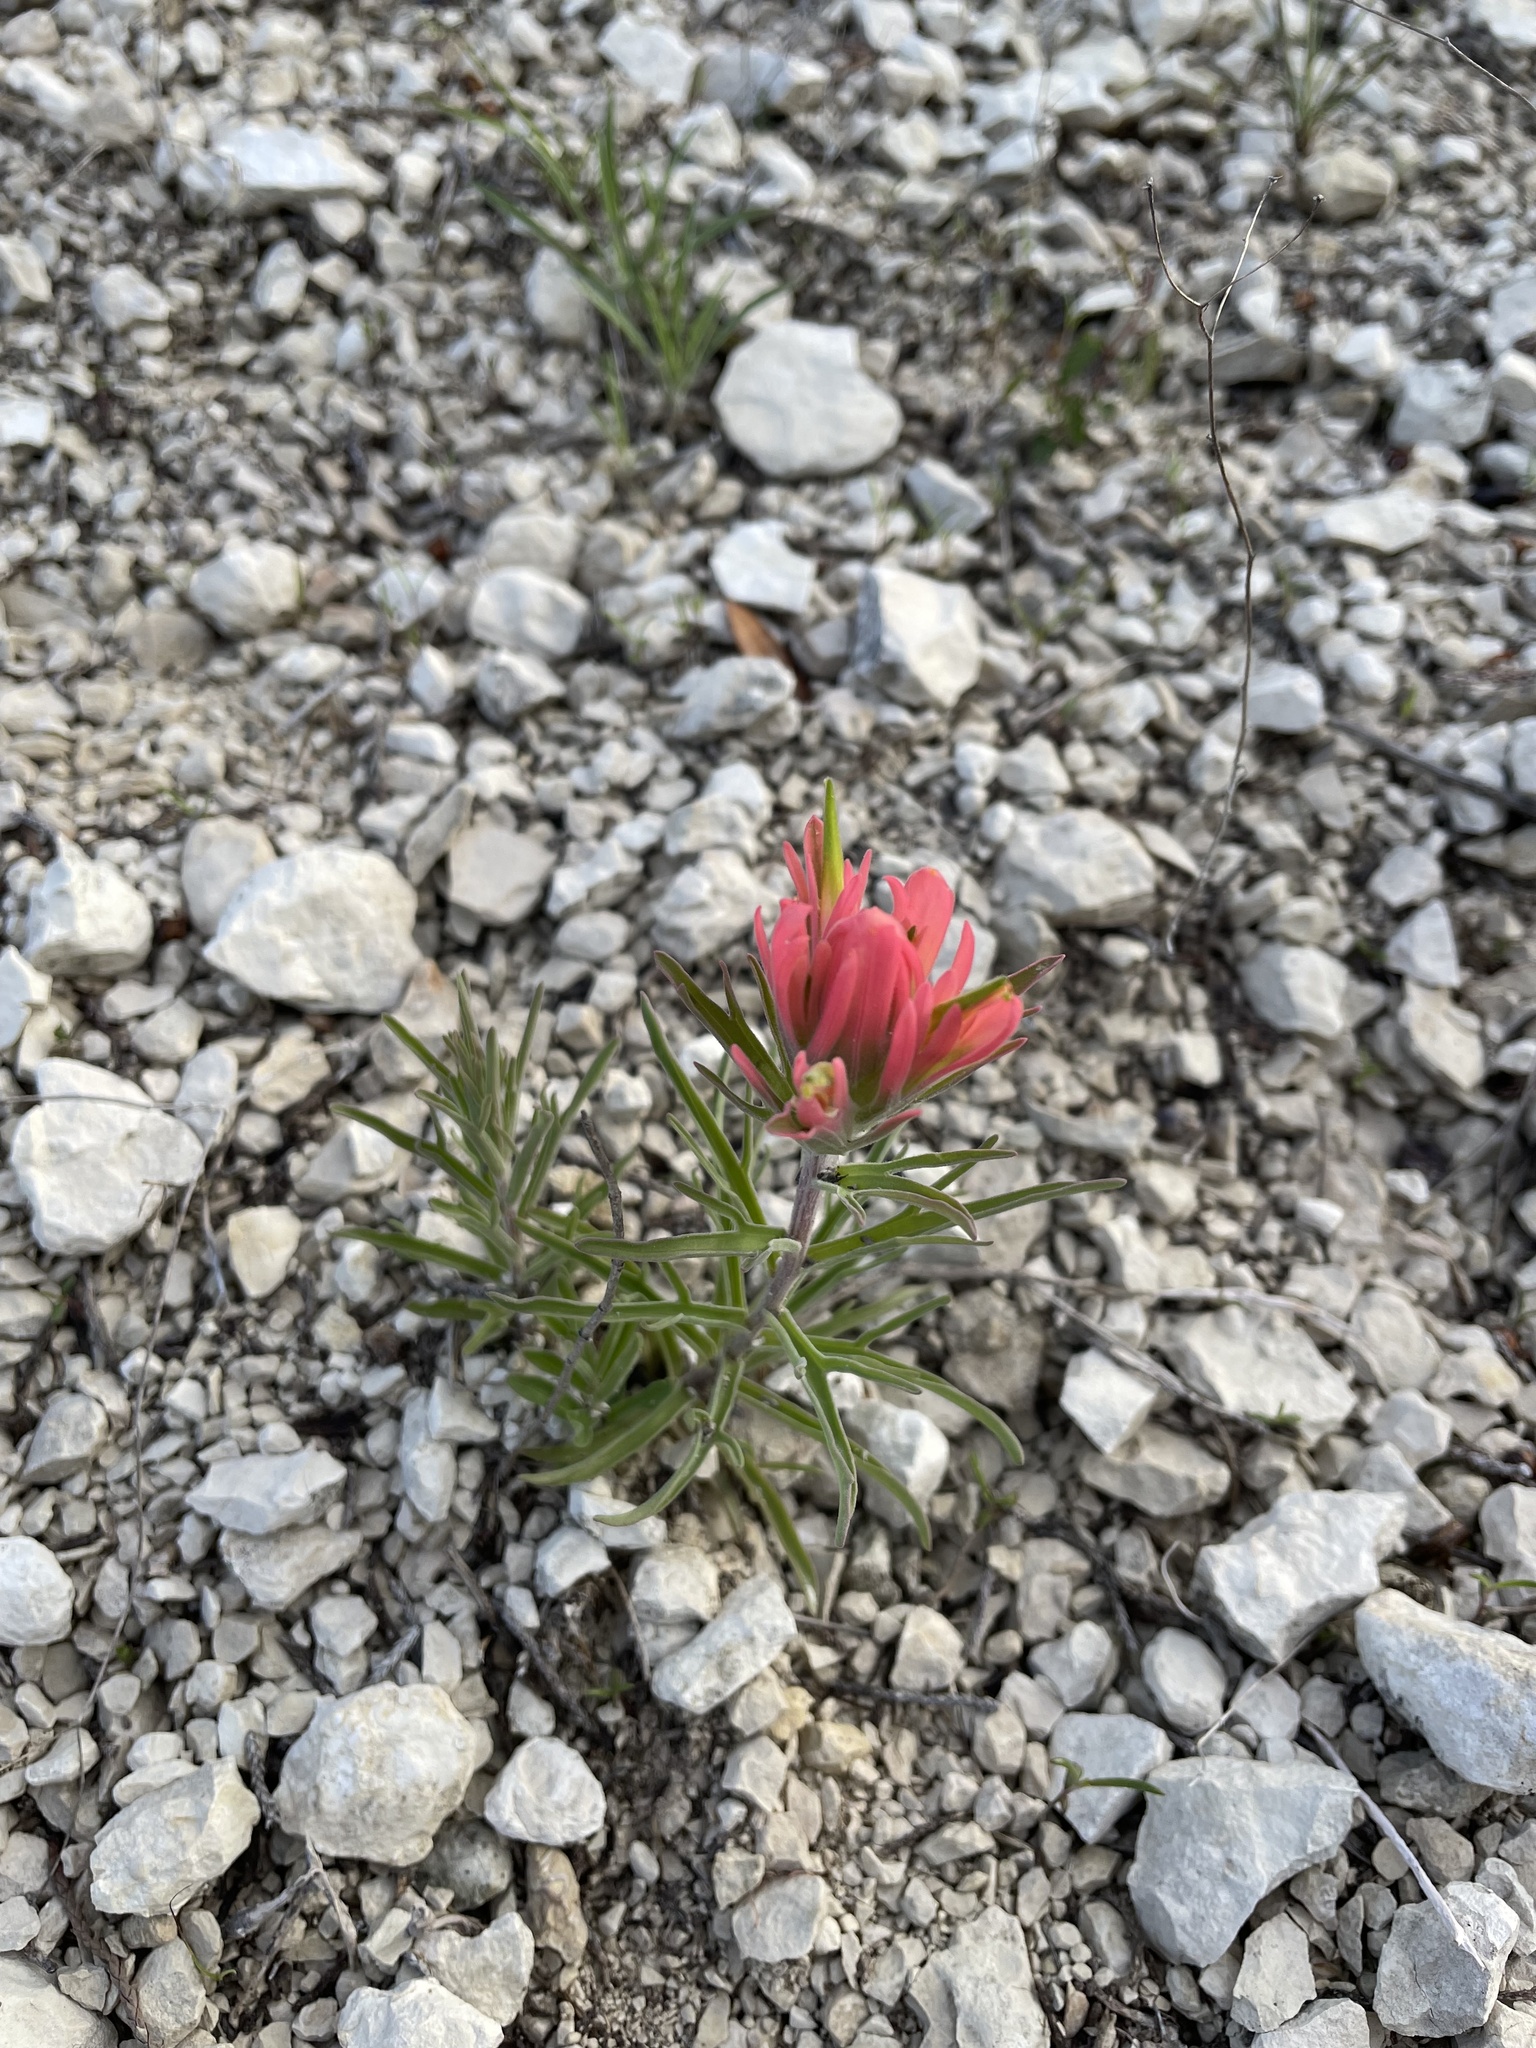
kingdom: Plantae
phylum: Tracheophyta
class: Magnoliopsida
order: Lamiales
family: Orobanchaceae
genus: Castilleja
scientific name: Castilleja lindheimeri
